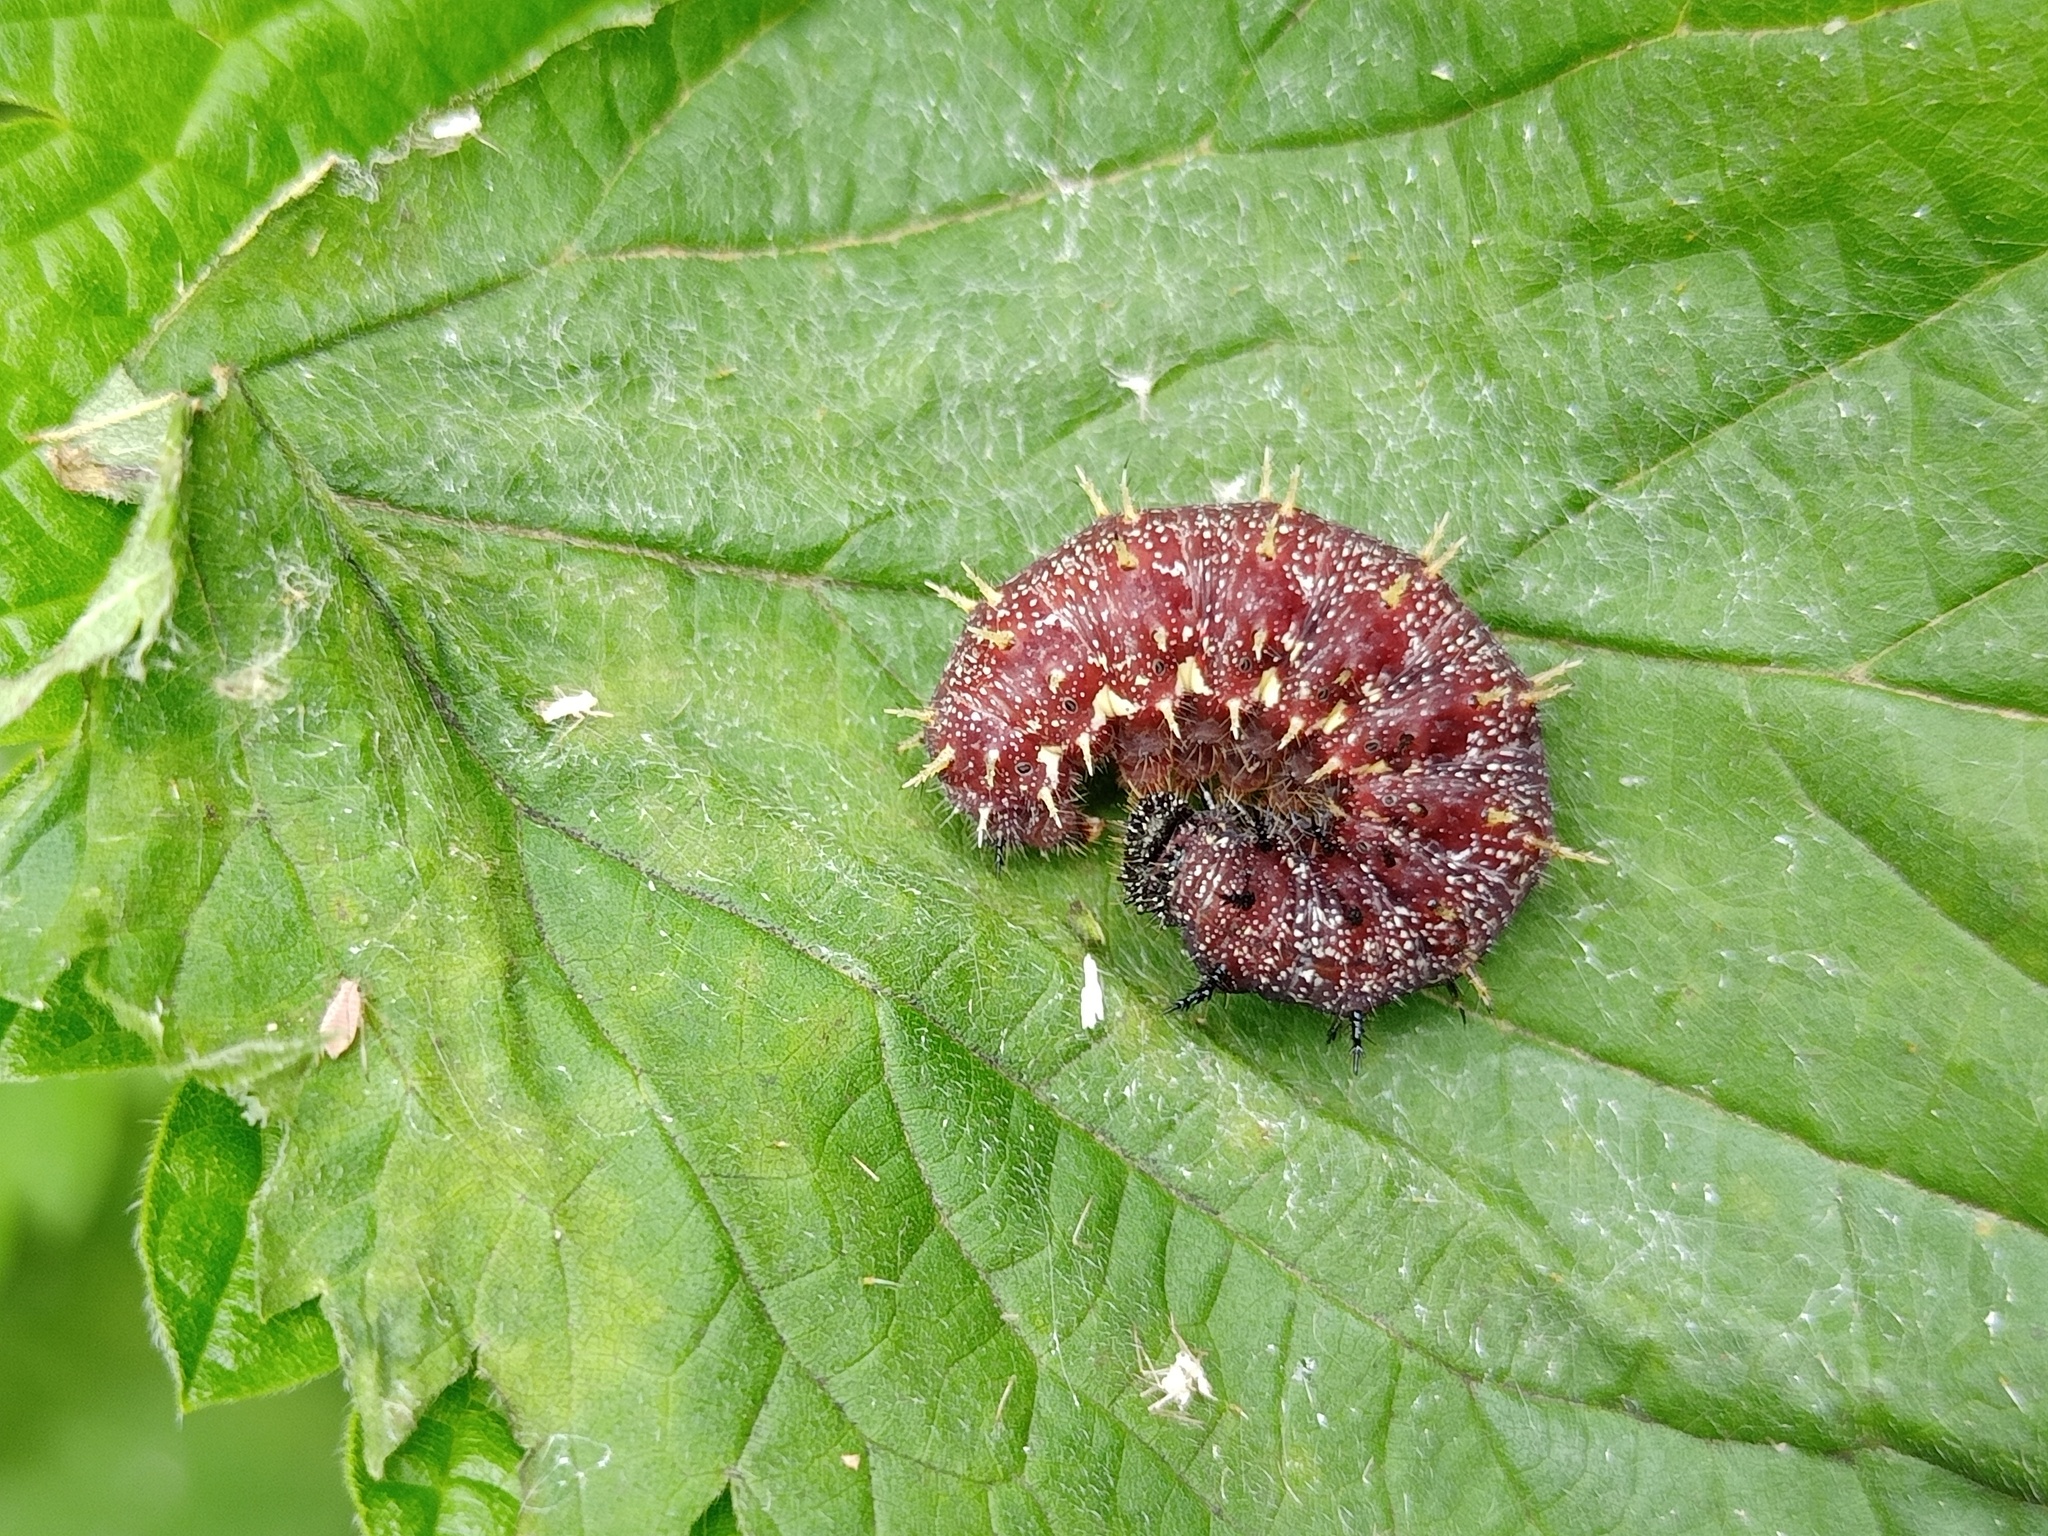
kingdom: Animalia
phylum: Arthropoda
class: Insecta
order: Lepidoptera
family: Nymphalidae
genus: Vanessa
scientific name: Vanessa atalanta
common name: Red admiral
